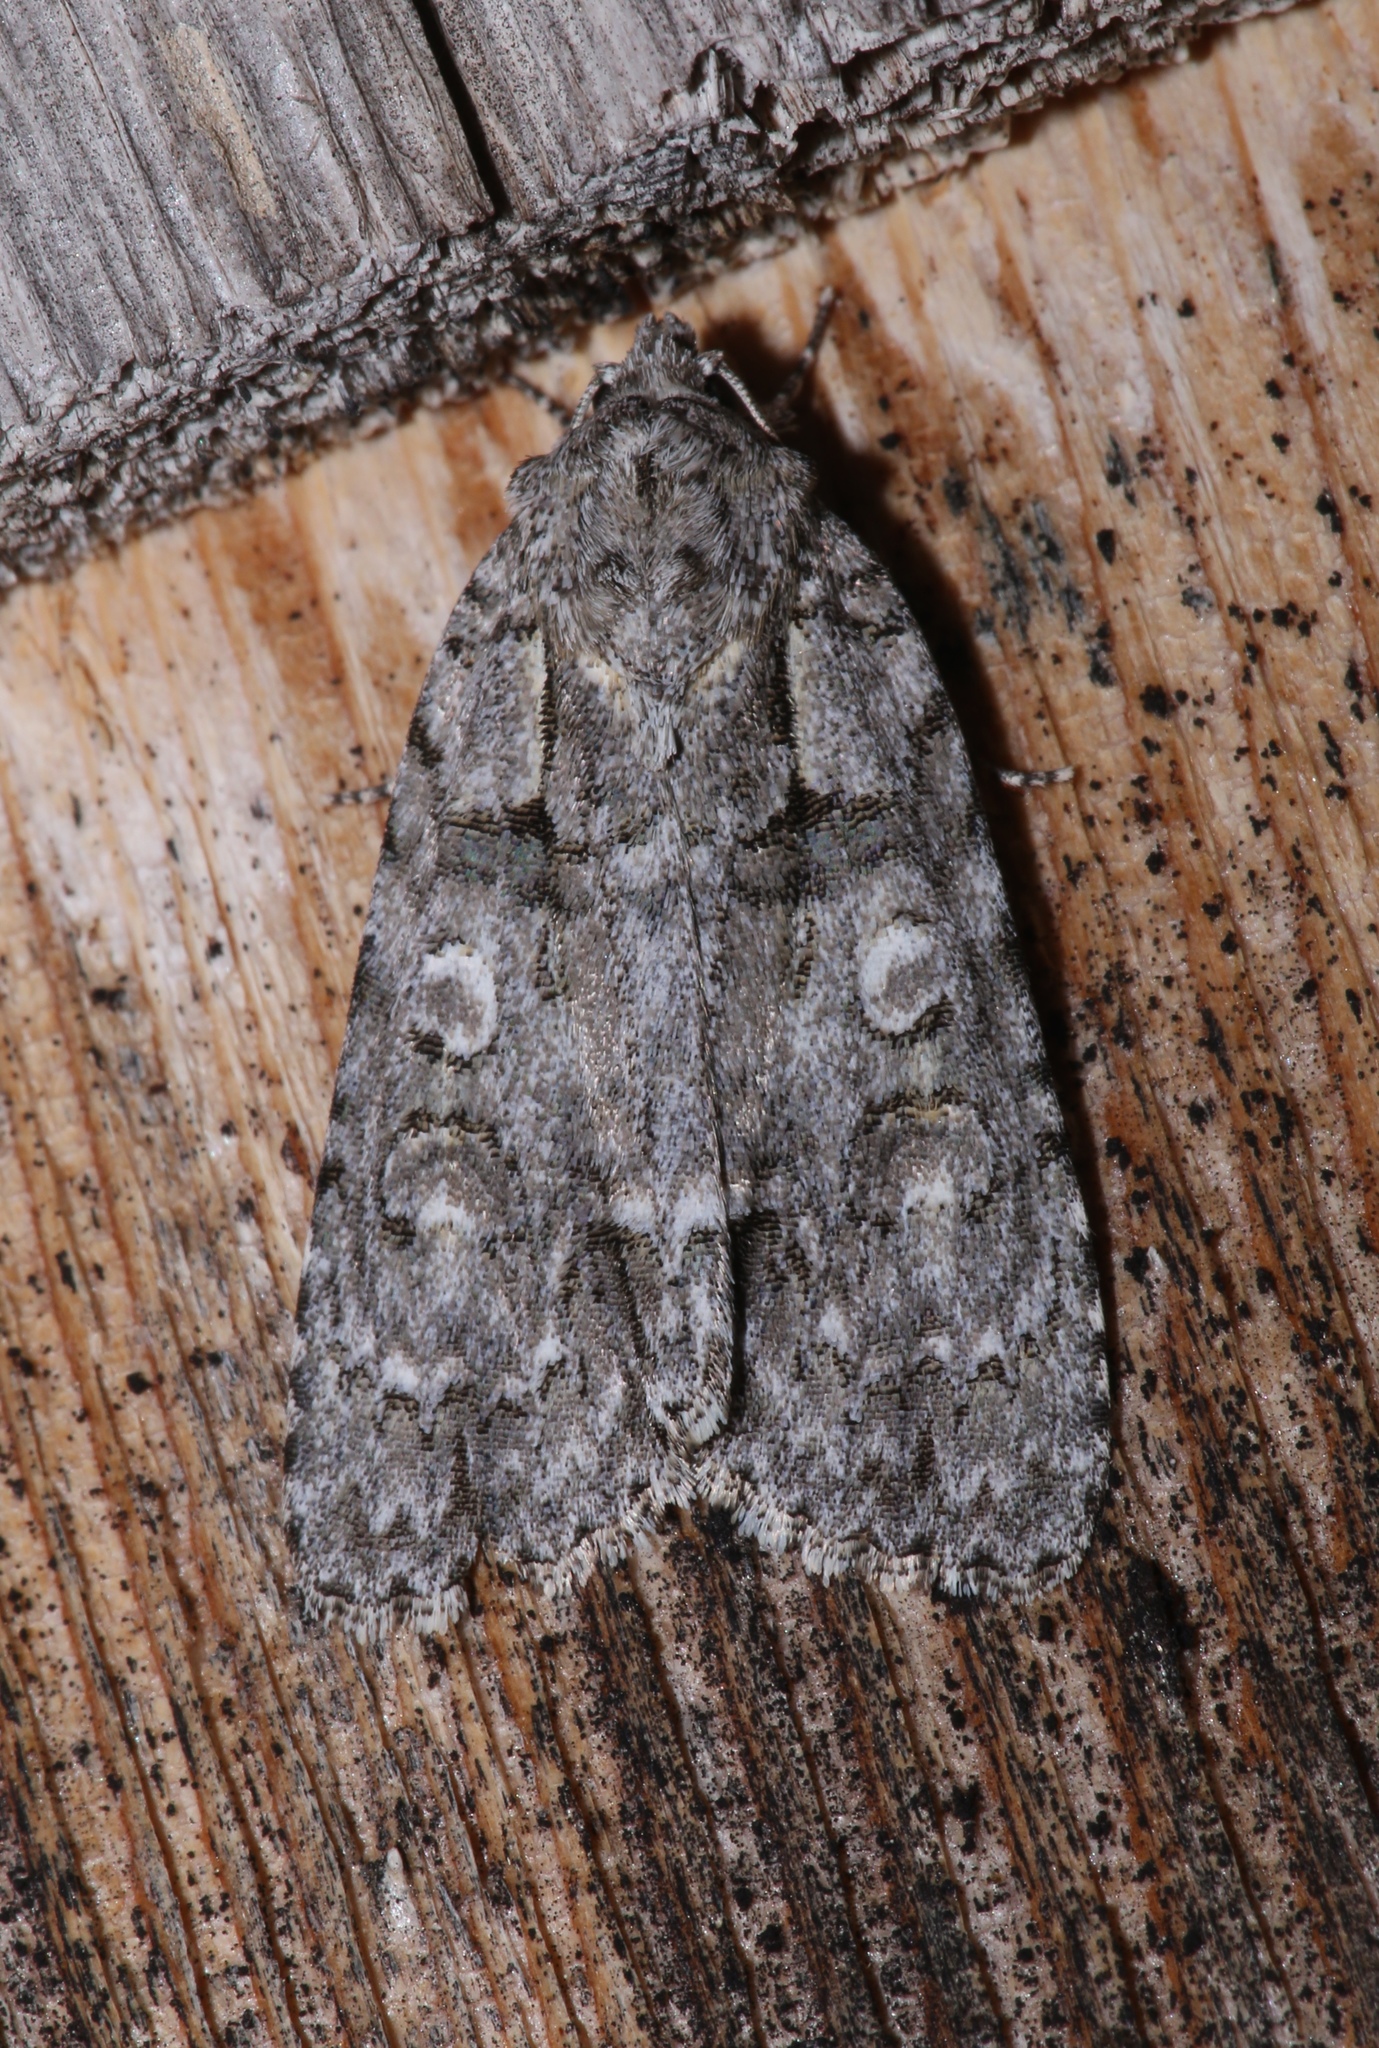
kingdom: Animalia
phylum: Arthropoda
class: Insecta
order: Lepidoptera
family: Noctuidae
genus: Acronicta
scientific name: Acronicta modica
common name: Hesitant dagger
